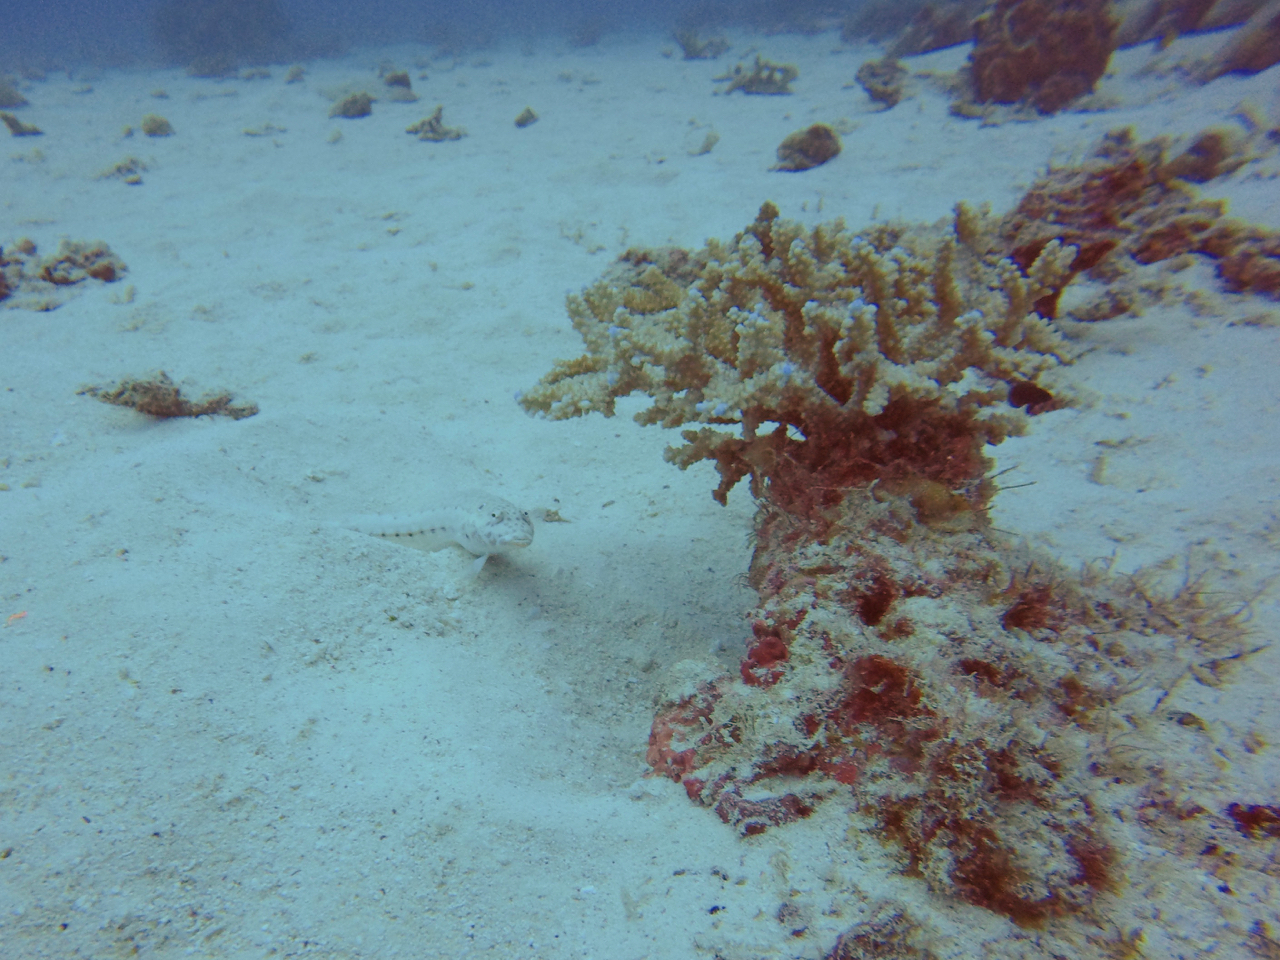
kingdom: Animalia
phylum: Chordata
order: Perciformes
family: Pinguipedidae
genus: Parapercis
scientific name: Parapercis clathrata
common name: Latticed sandperch
